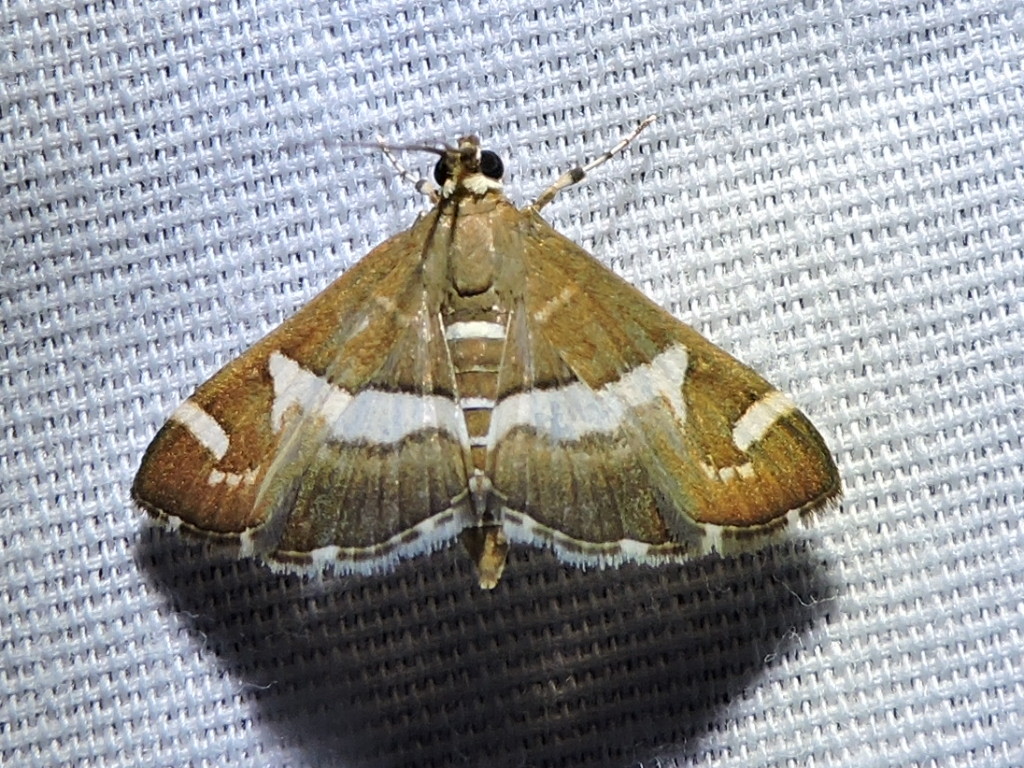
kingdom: Animalia
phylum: Arthropoda
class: Insecta
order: Lepidoptera
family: Crambidae
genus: Spoladea
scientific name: Spoladea recurvalis
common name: Beet webworm moth
